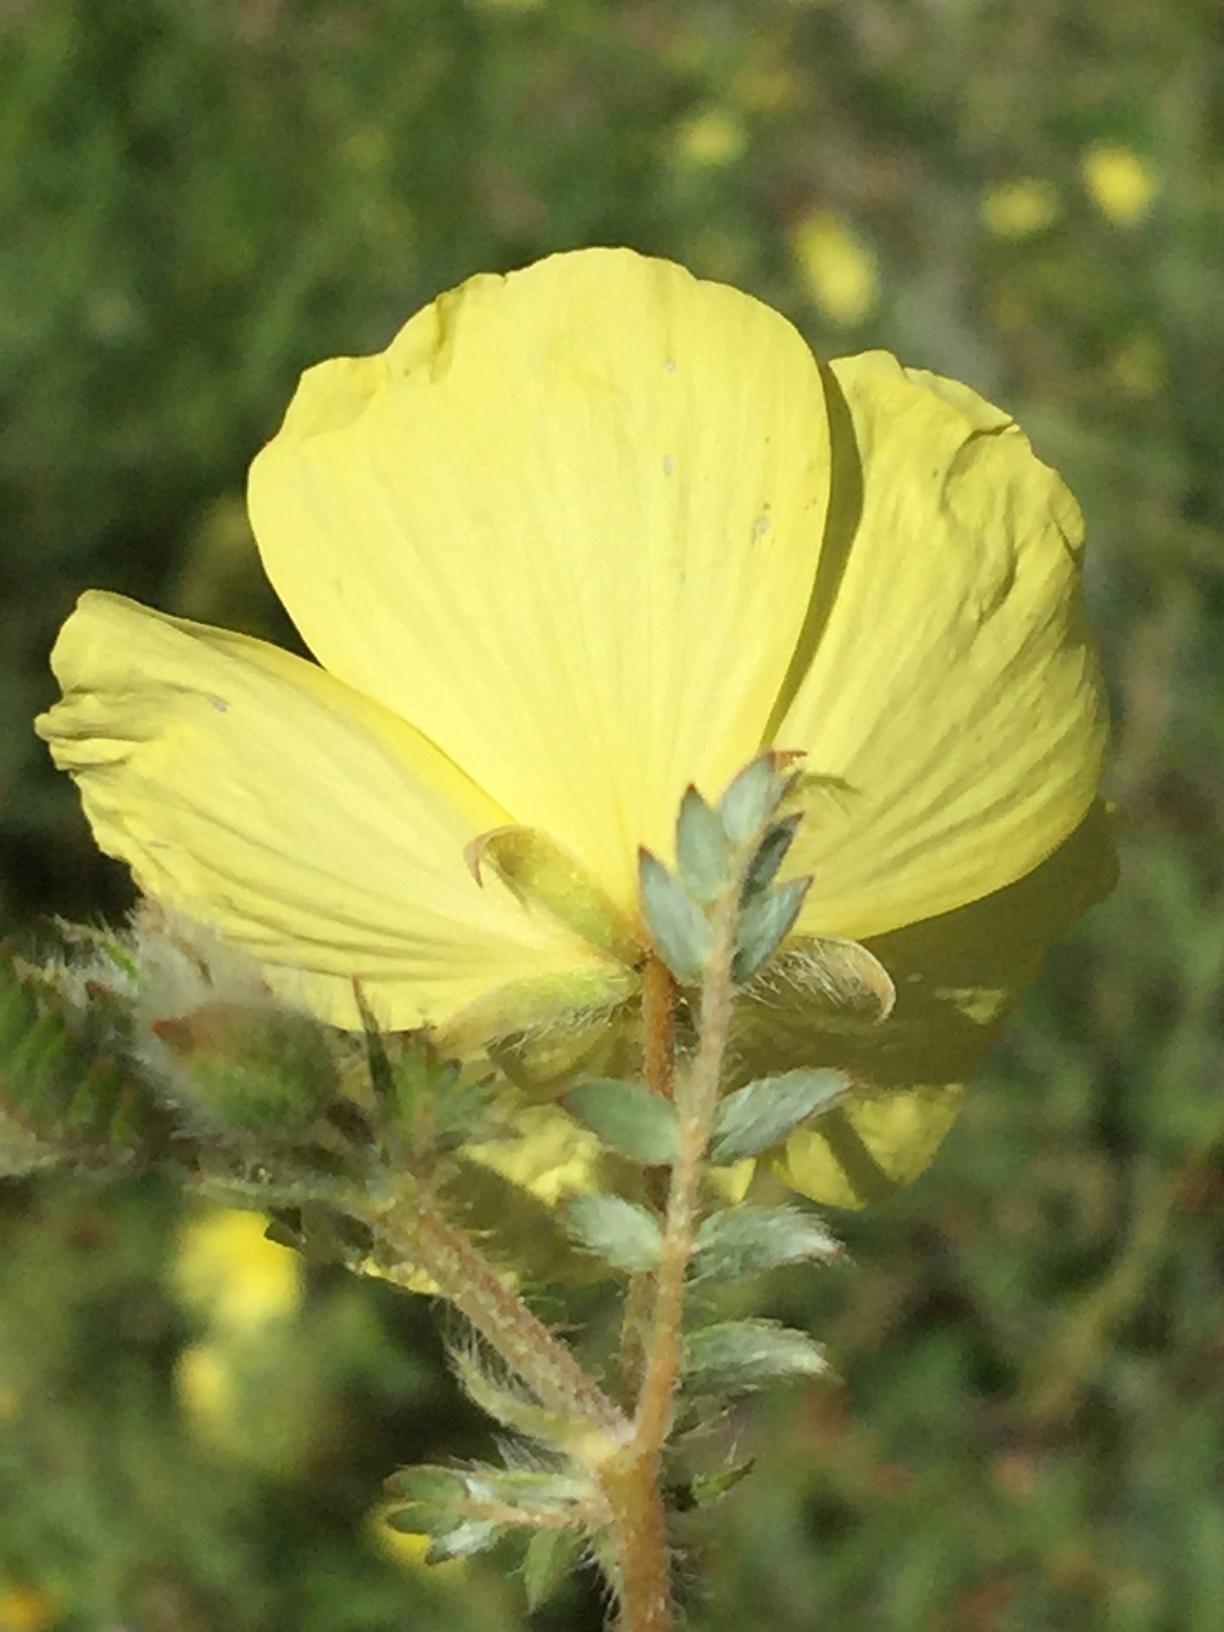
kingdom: Plantae
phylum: Tracheophyta
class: Magnoliopsida
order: Zygophyllales
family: Zygophyllaceae
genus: Tribulus
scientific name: Tribulus zeyheri
